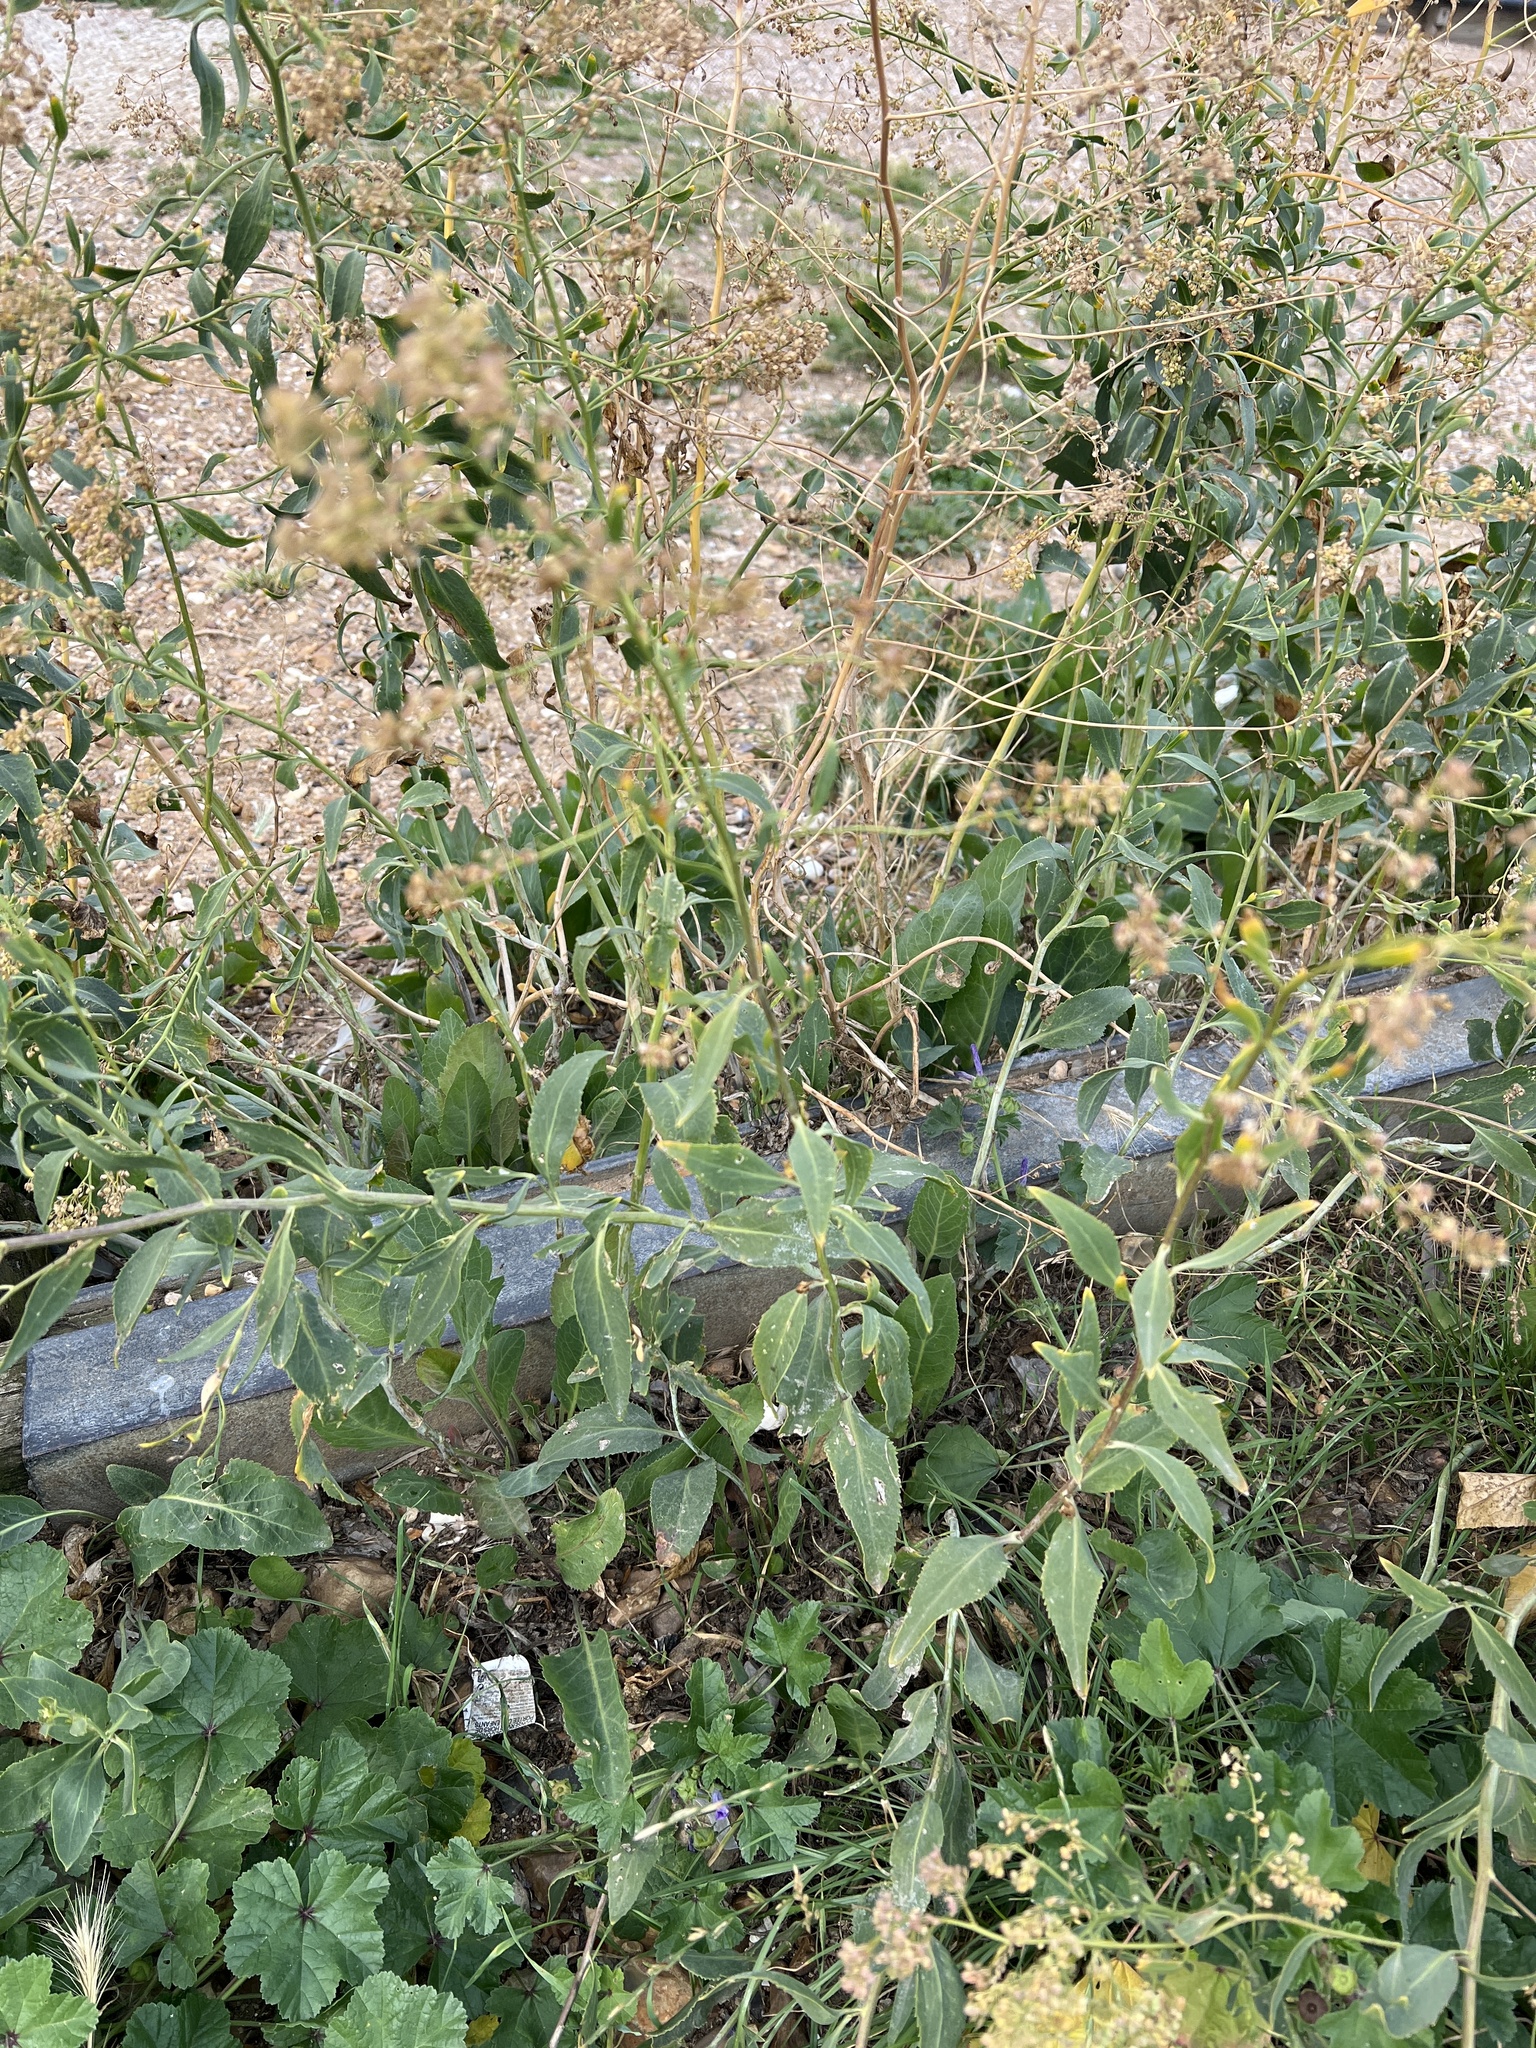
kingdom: Plantae
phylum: Tracheophyta
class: Magnoliopsida
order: Brassicales
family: Brassicaceae
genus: Lepidium
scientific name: Lepidium latifolium
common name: Dittander
